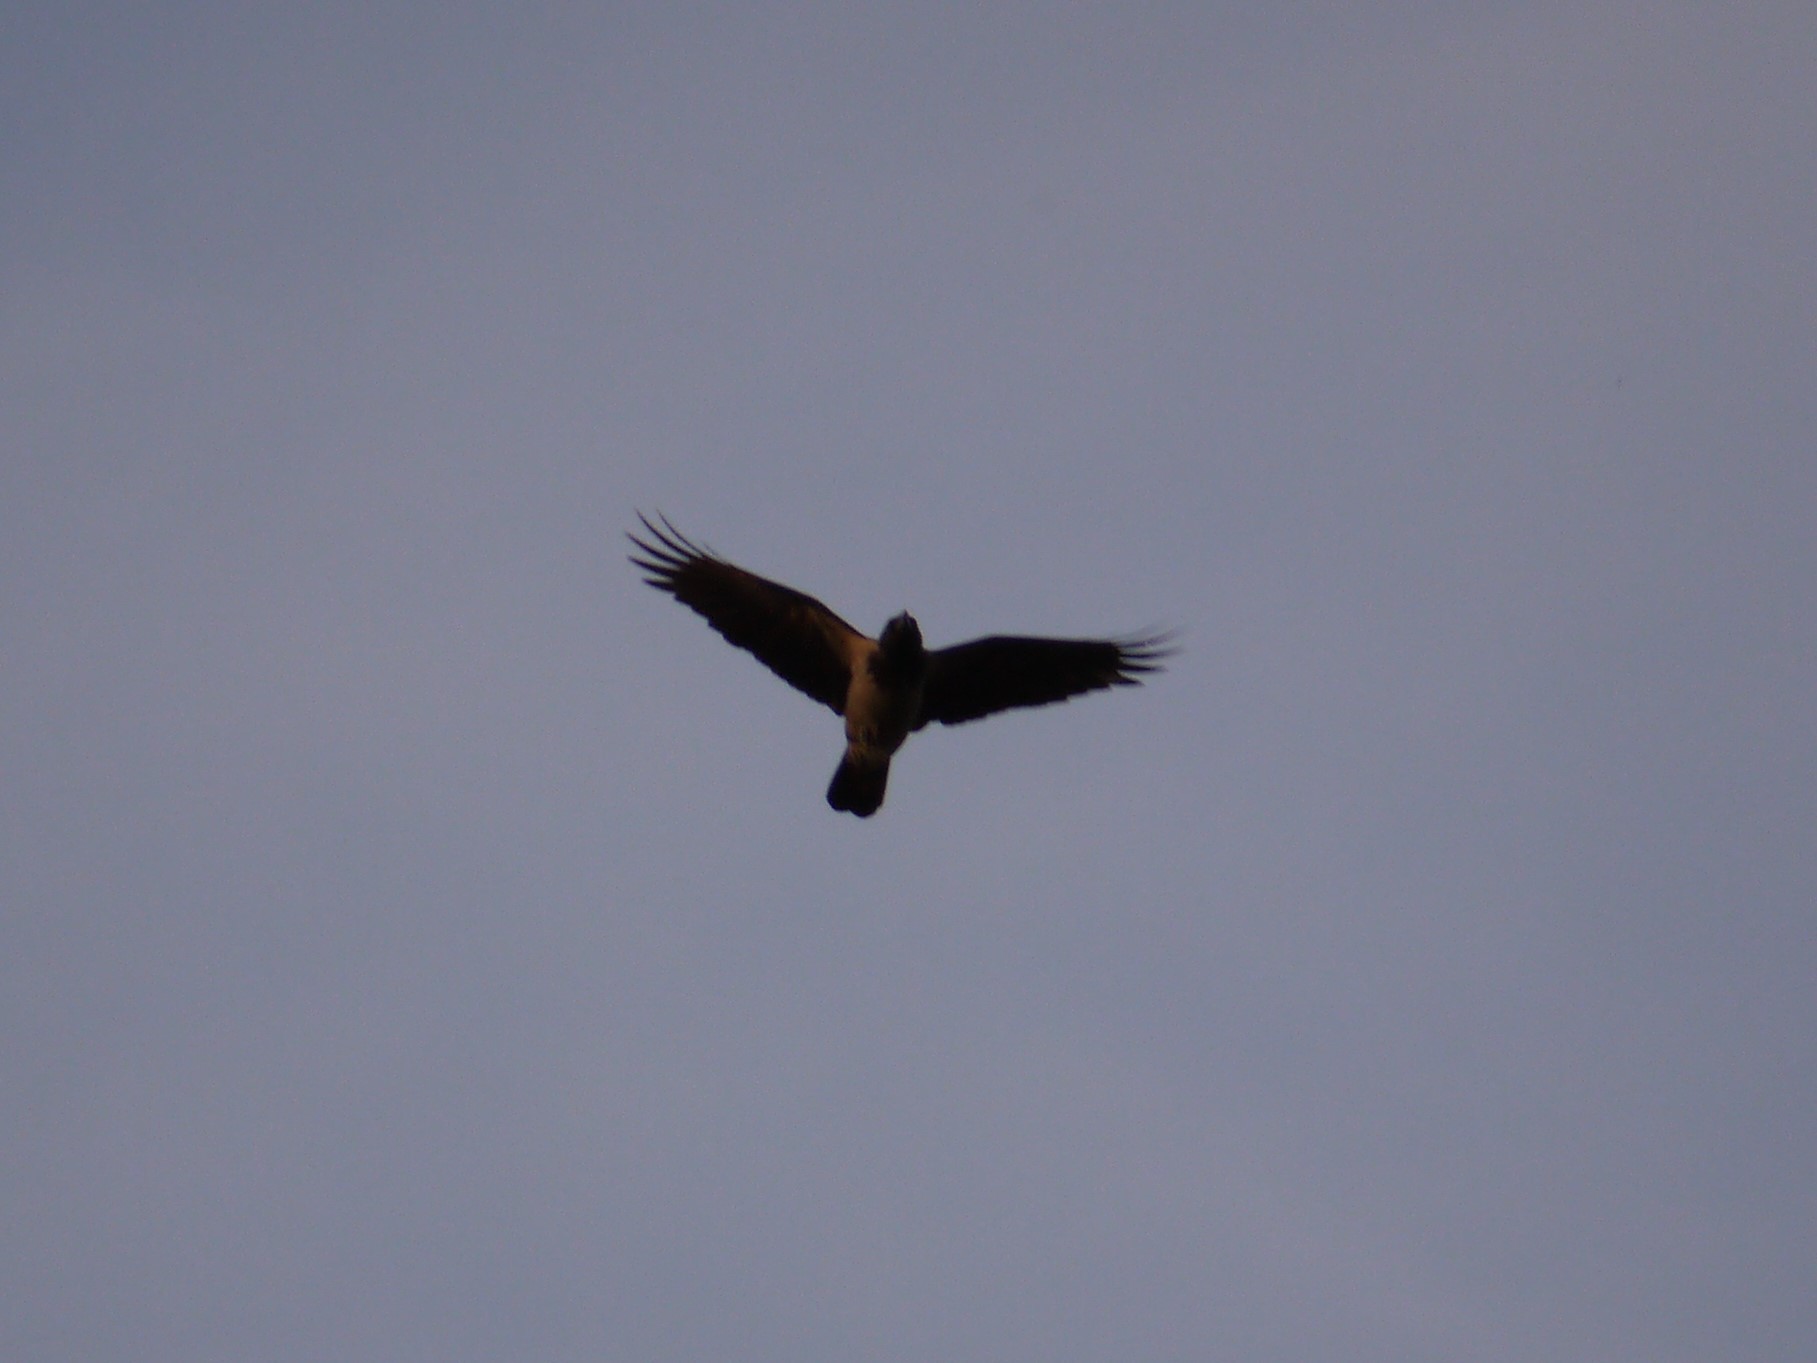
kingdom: Animalia
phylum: Chordata
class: Aves
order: Passeriformes
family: Corvidae
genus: Corvus
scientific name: Corvus cornix
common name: Hooded crow
